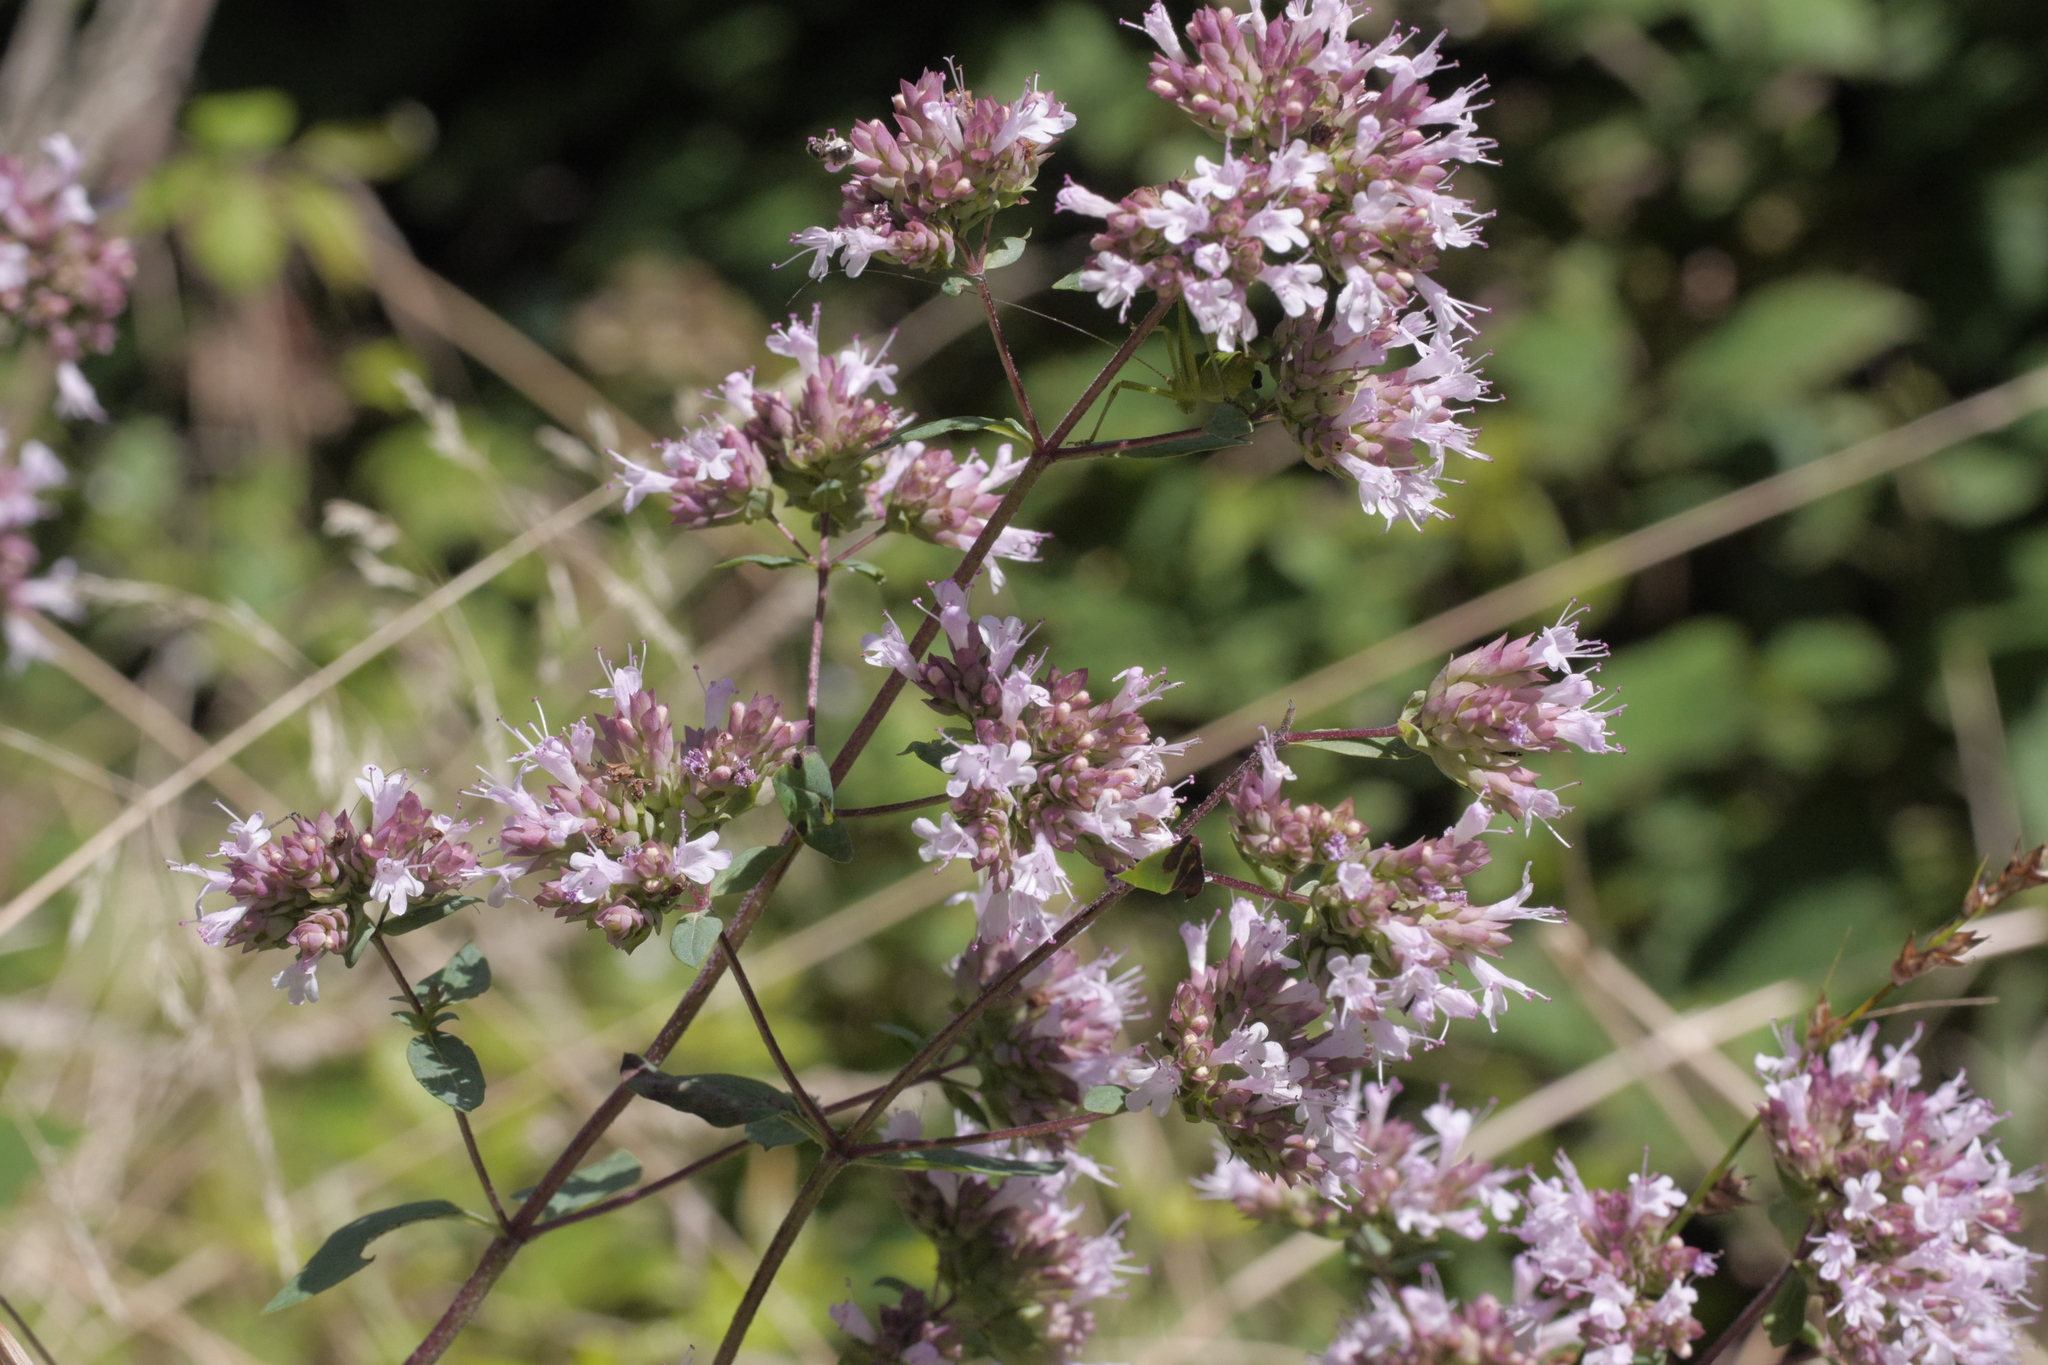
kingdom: Plantae
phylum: Tracheophyta
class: Magnoliopsida
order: Lamiales
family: Lamiaceae
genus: Origanum
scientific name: Origanum vulgare
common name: Wild marjoram
